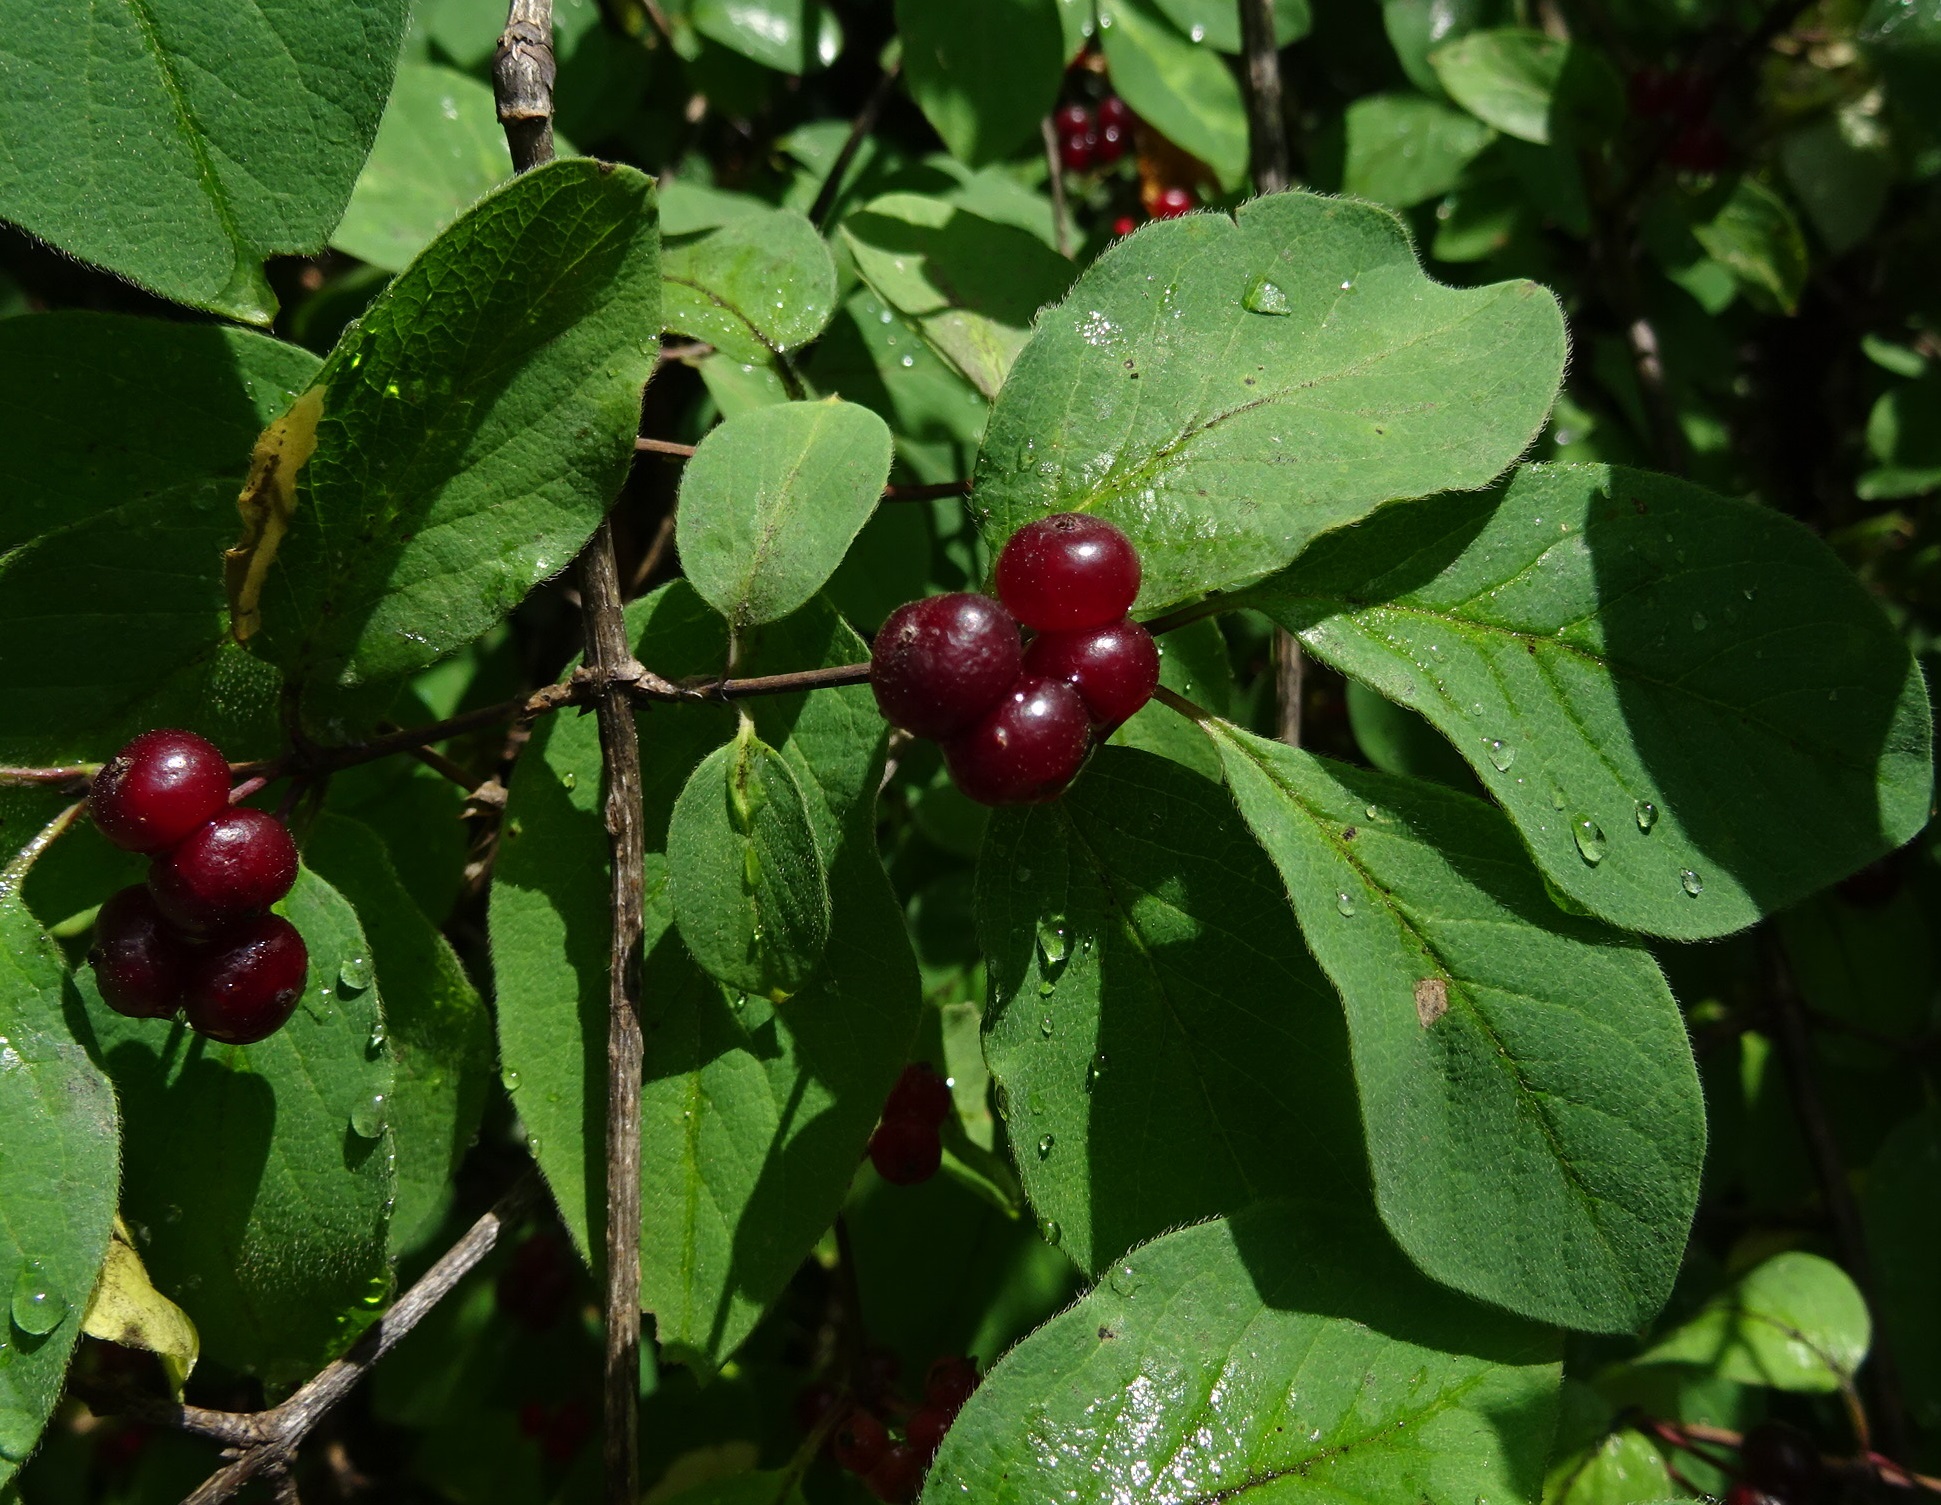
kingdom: Plantae
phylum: Tracheophyta
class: Magnoliopsida
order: Dipsacales
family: Caprifoliaceae
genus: Lonicera
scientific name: Lonicera xylosteum
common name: Fly honeysuckle
